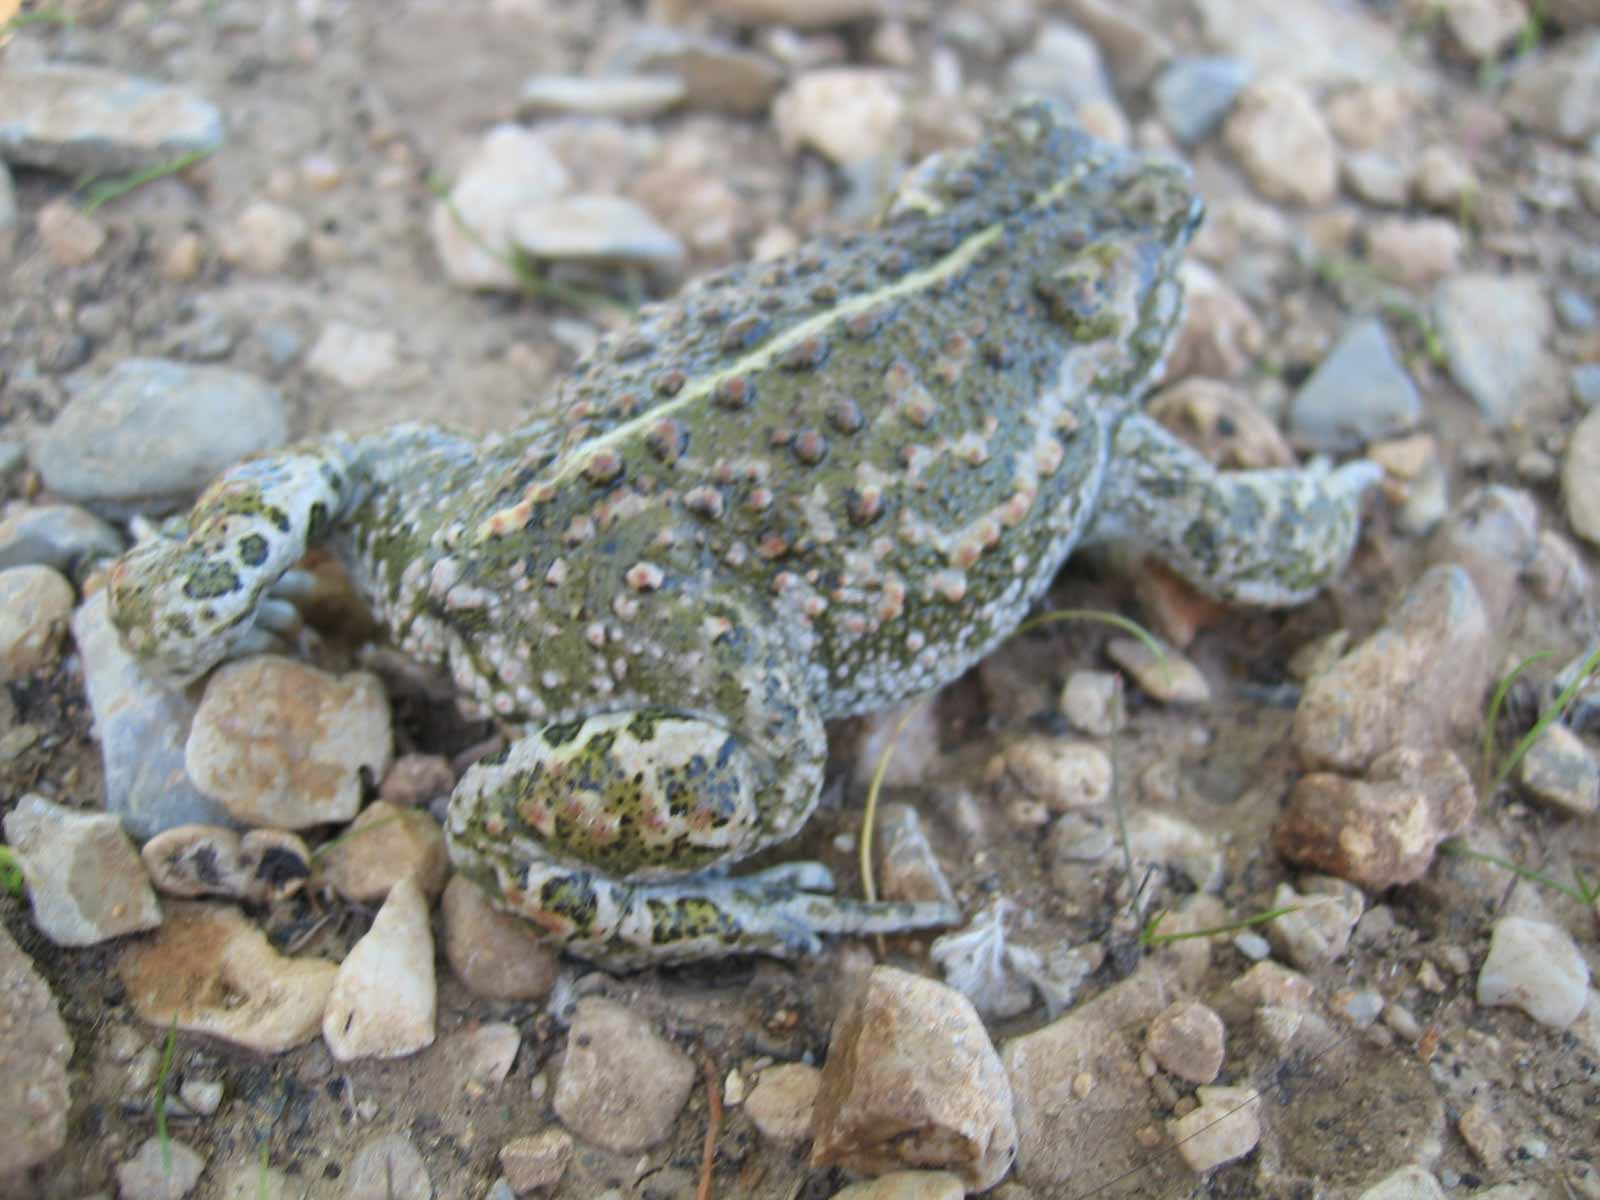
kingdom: Animalia
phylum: Chordata
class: Amphibia
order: Anura
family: Bufonidae
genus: Epidalea
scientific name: Epidalea calamita
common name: Natterjack toad
